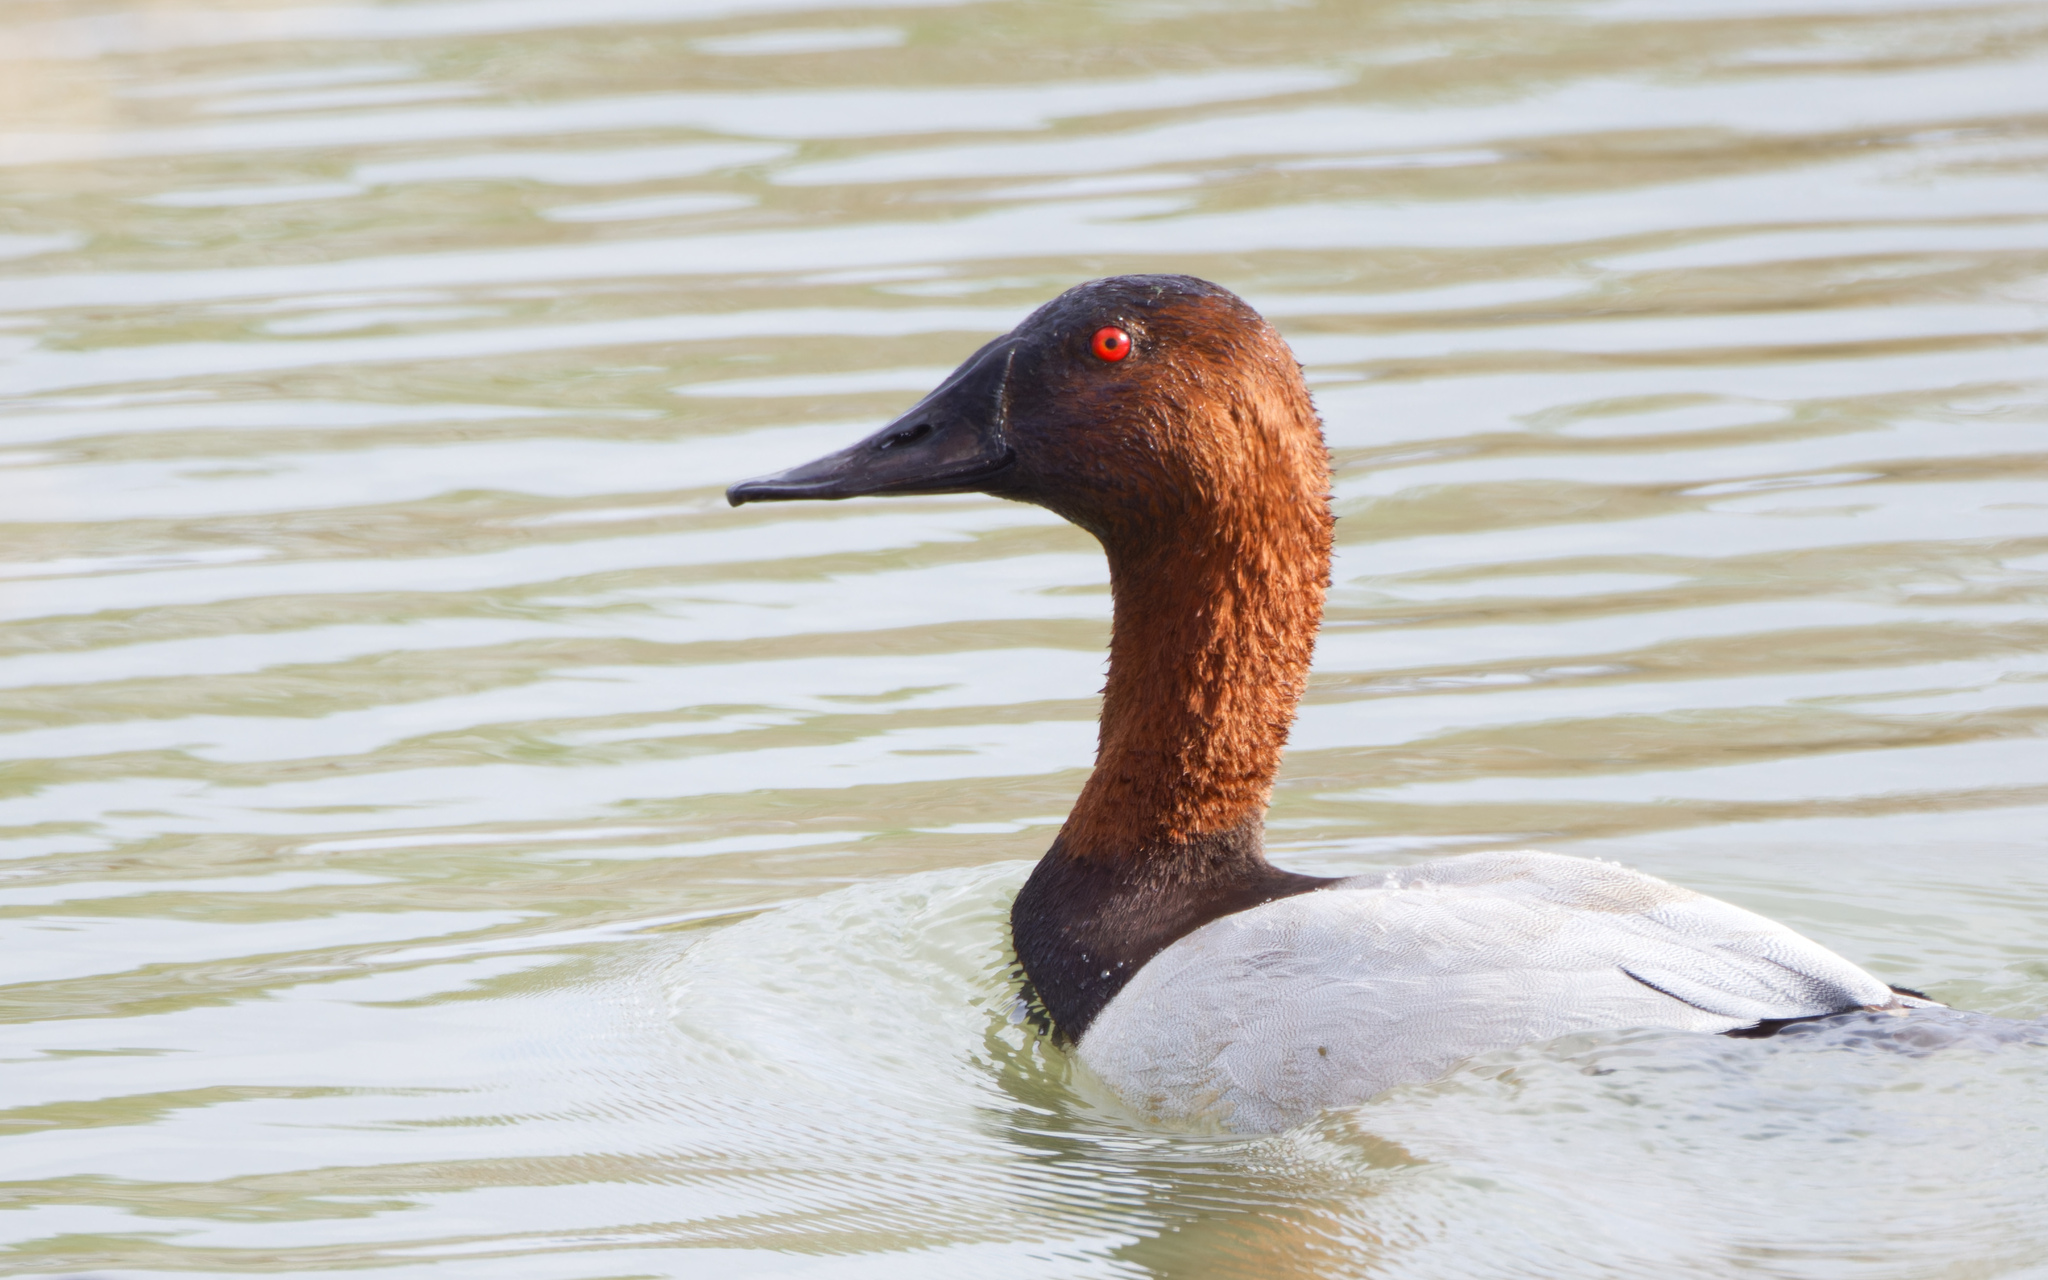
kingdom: Animalia
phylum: Chordata
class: Aves
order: Anseriformes
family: Anatidae
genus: Aythya
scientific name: Aythya valisineria
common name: Canvasback
